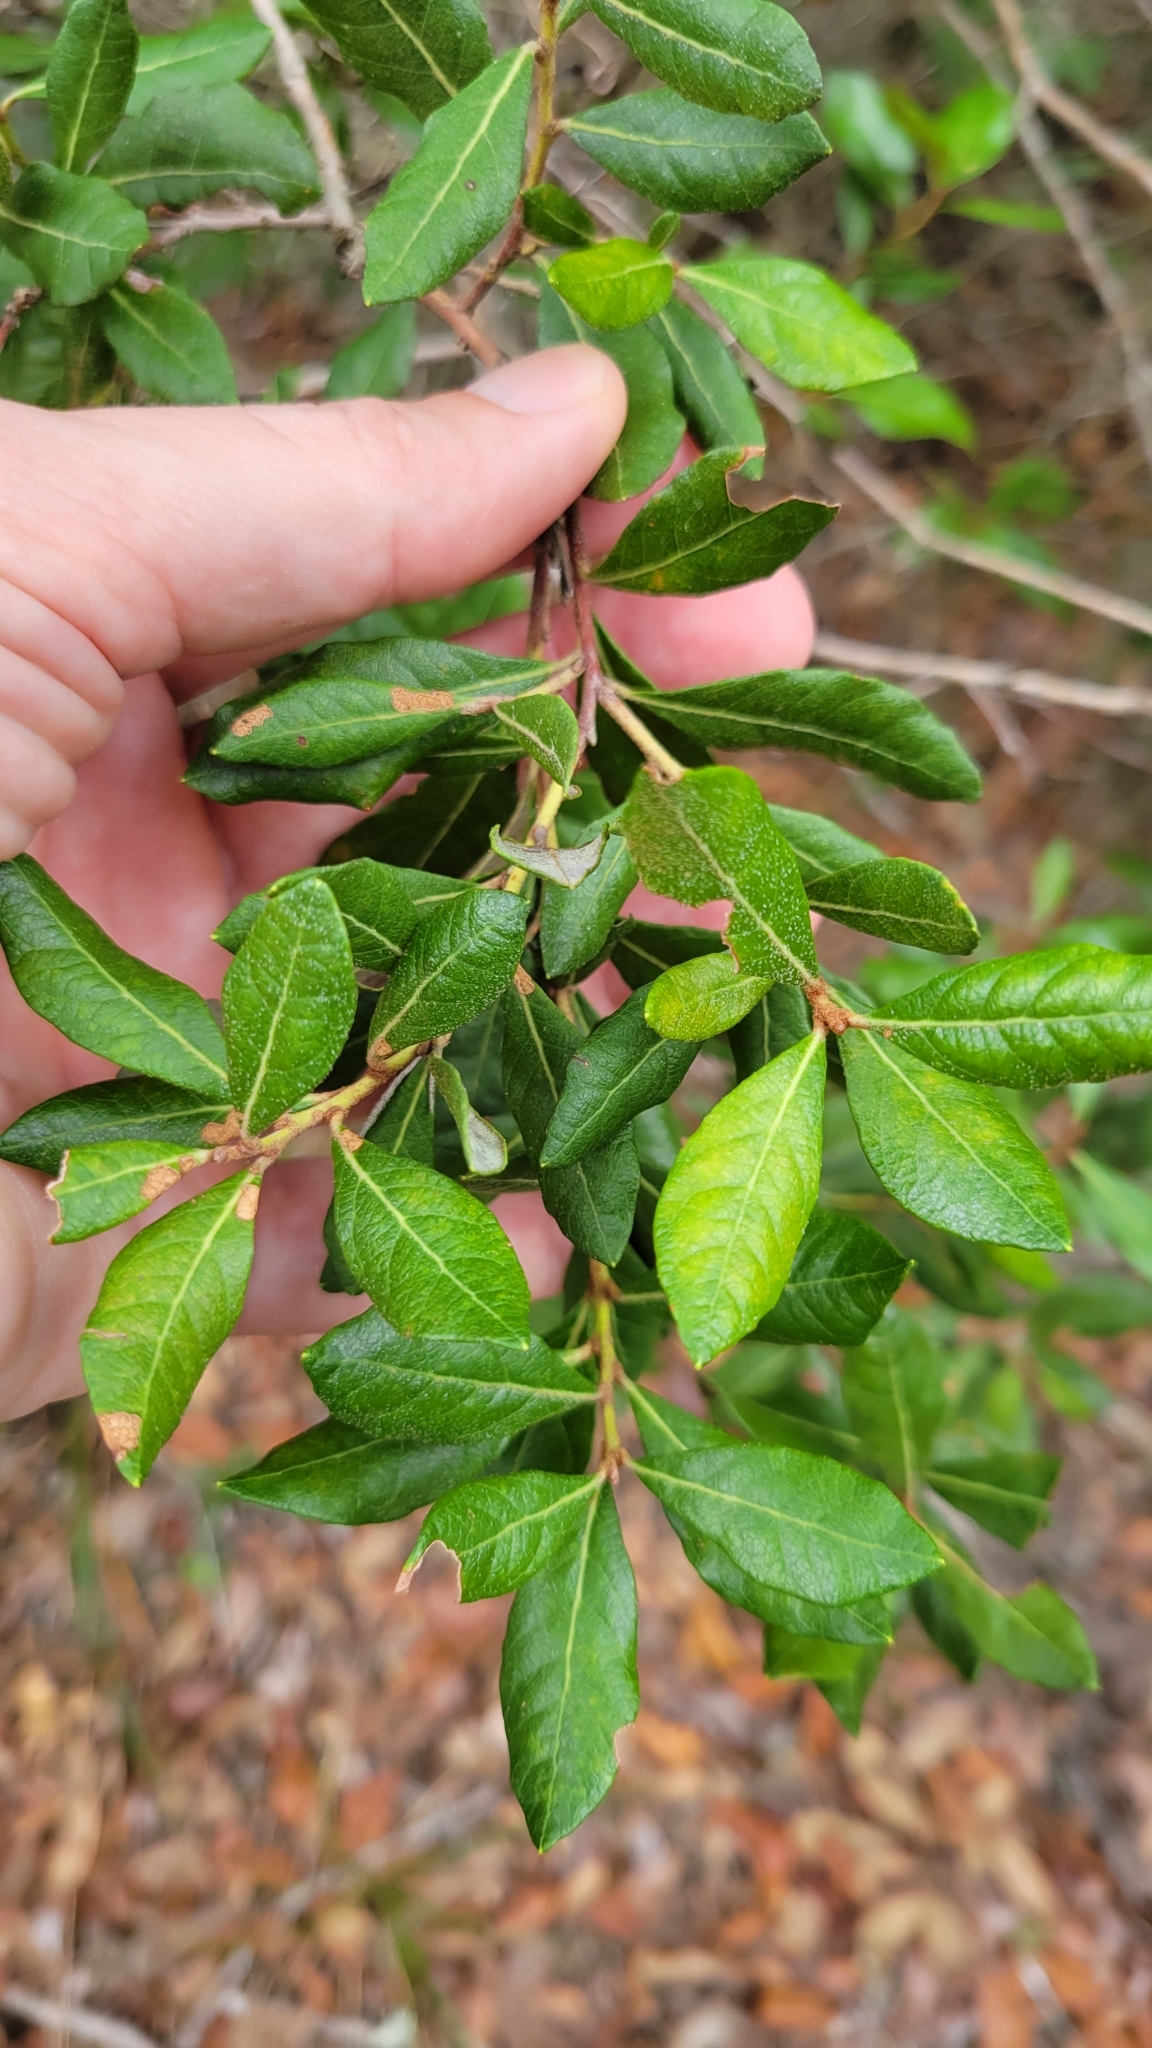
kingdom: Plantae
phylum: Tracheophyta
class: Magnoliopsida
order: Ericales
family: Ericaceae
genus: Lyonia
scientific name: Lyonia ferruginea
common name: Rusty lyonia
